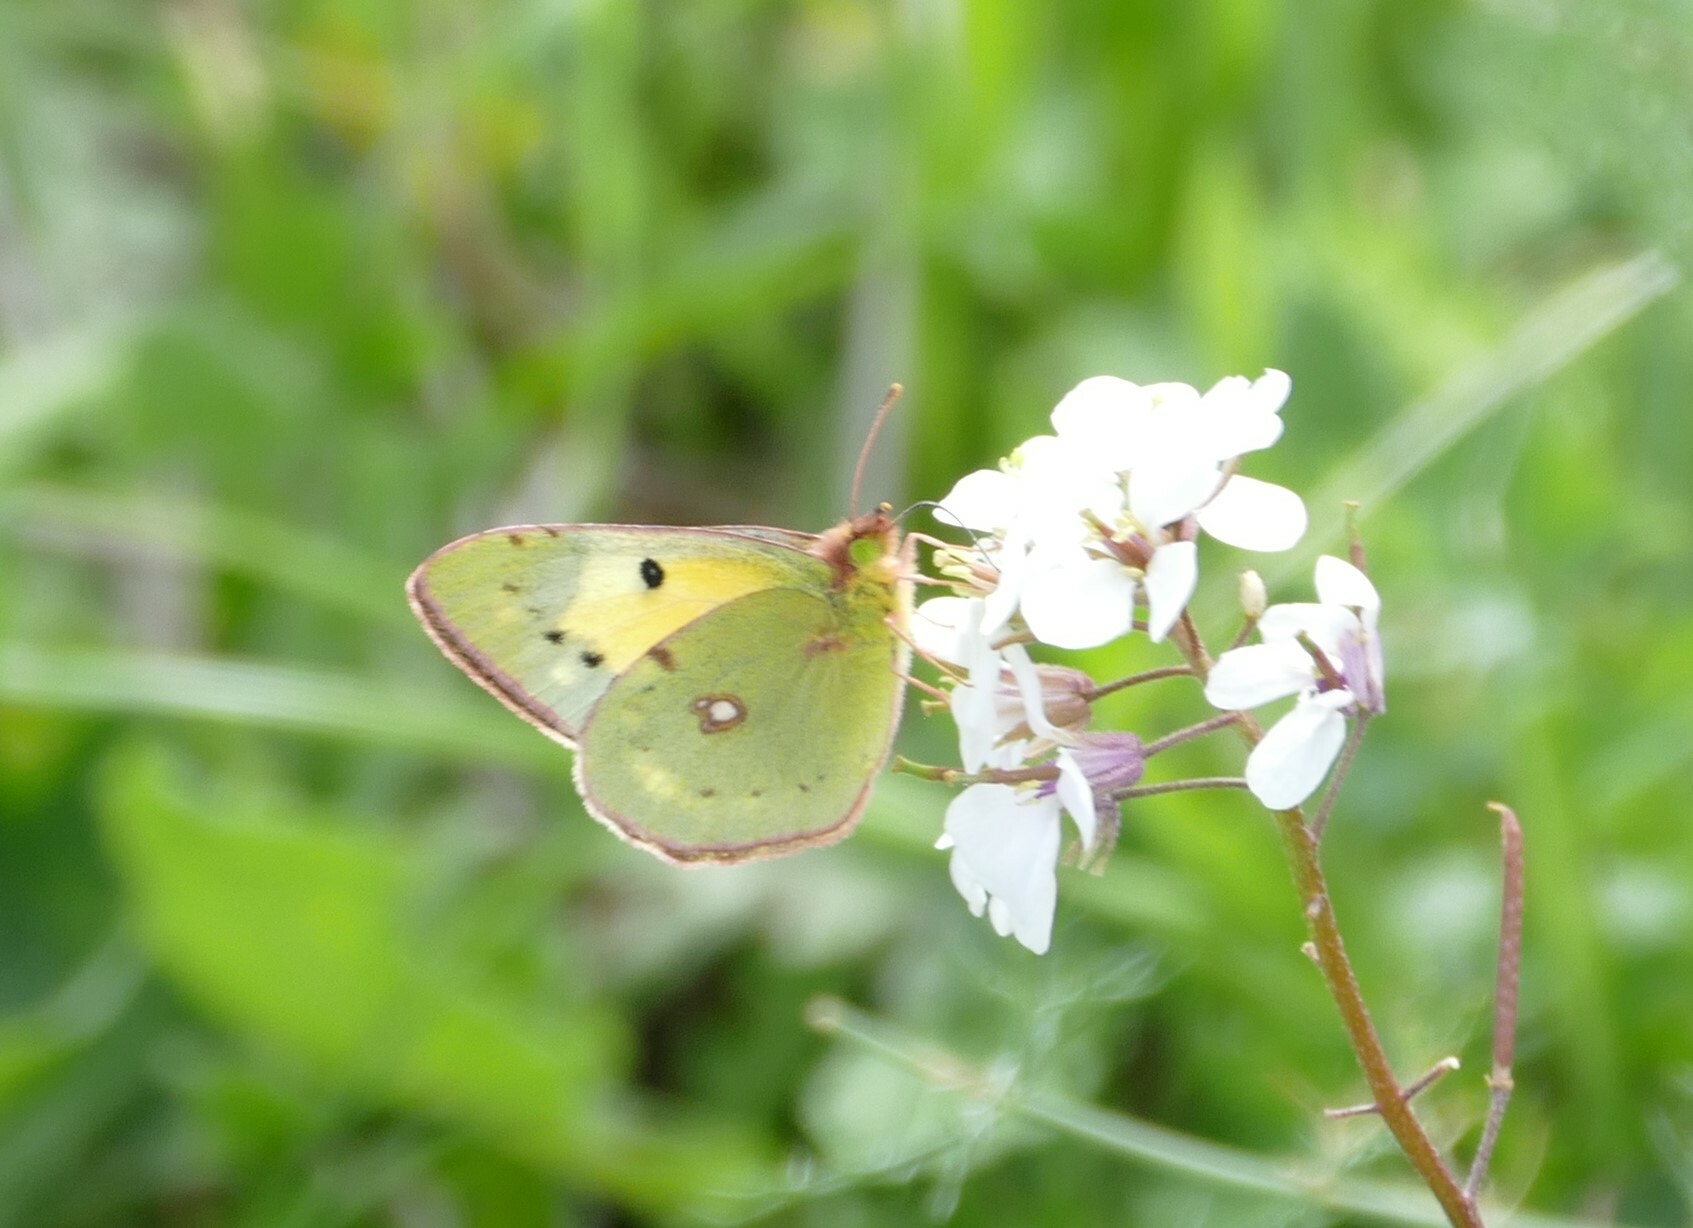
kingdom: Animalia
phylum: Arthropoda
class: Insecta
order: Lepidoptera
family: Pieridae
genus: Colias
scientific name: Colias croceus
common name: Clouded yellow
